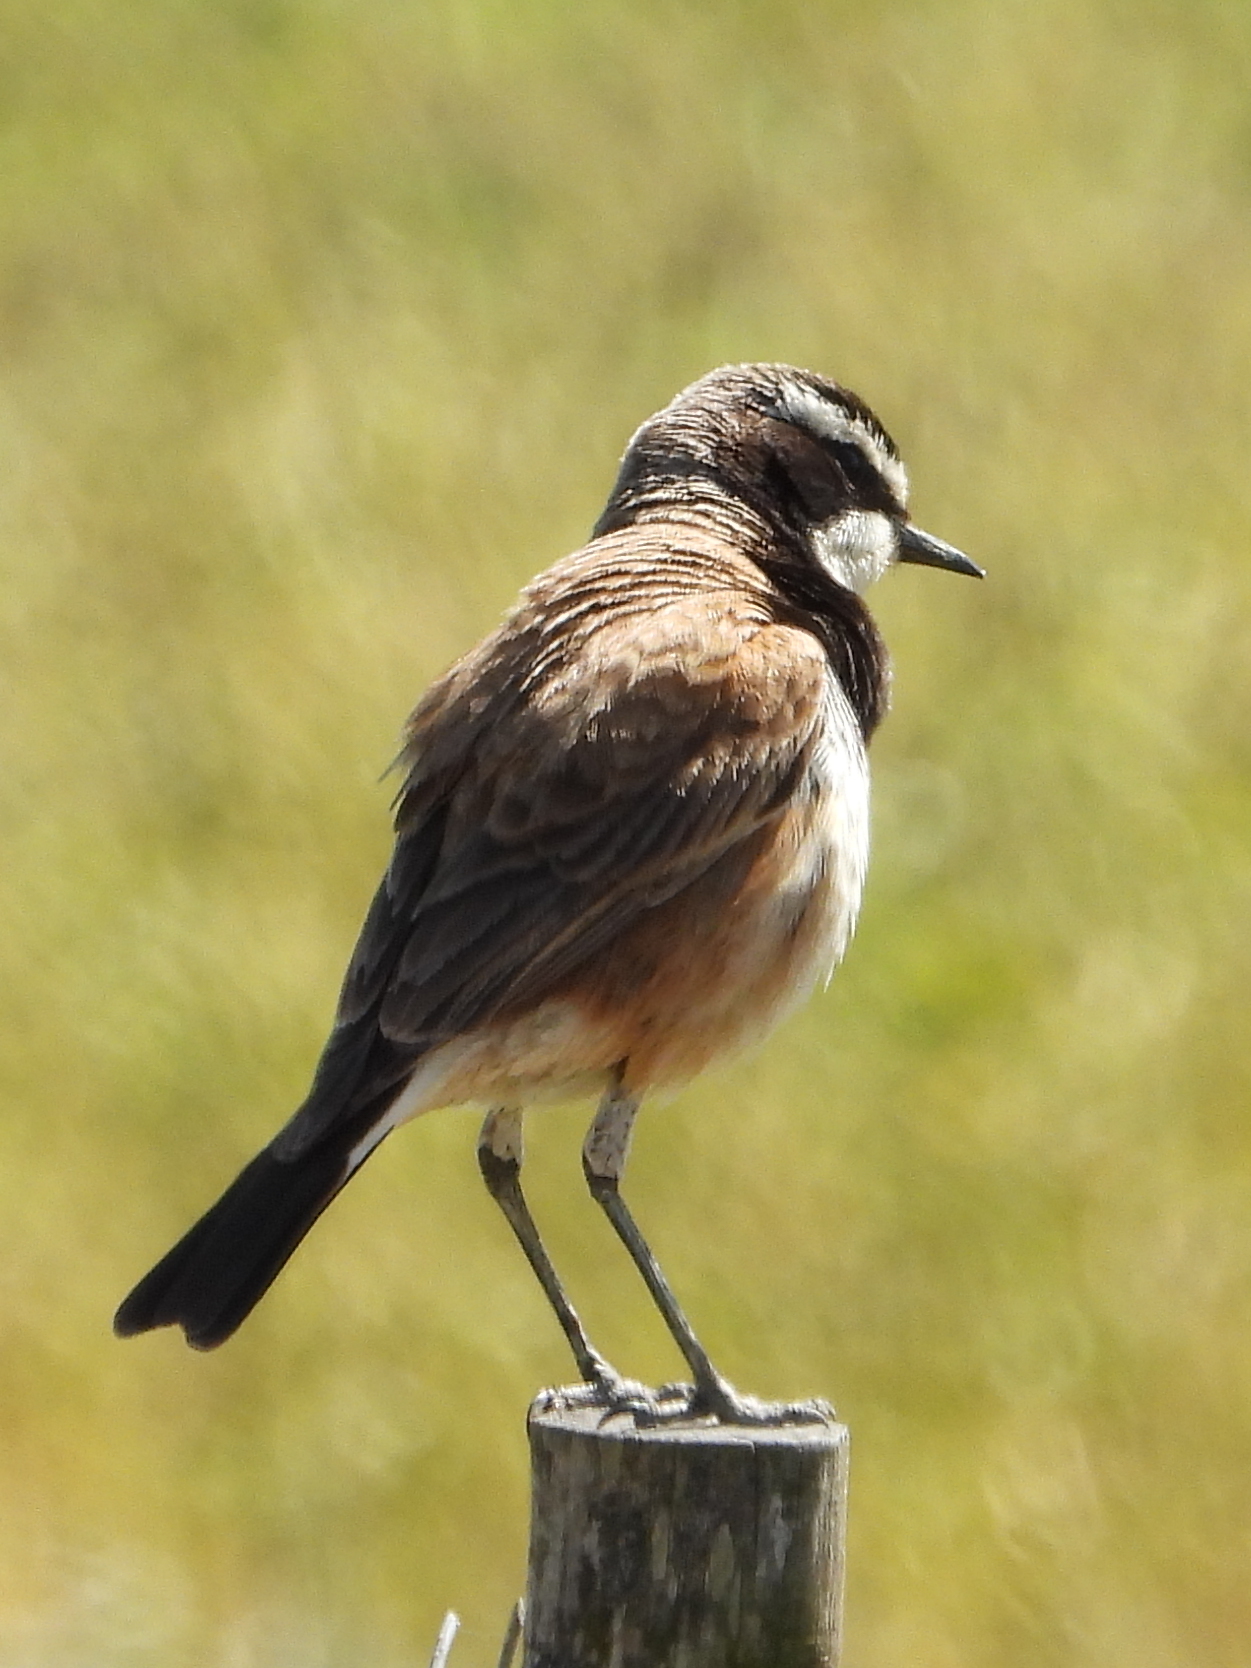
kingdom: Animalia
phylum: Chordata
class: Aves
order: Passeriformes
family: Muscicapidae
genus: Oenanthe
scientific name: Oenanthe pileata
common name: Capped wheatear
